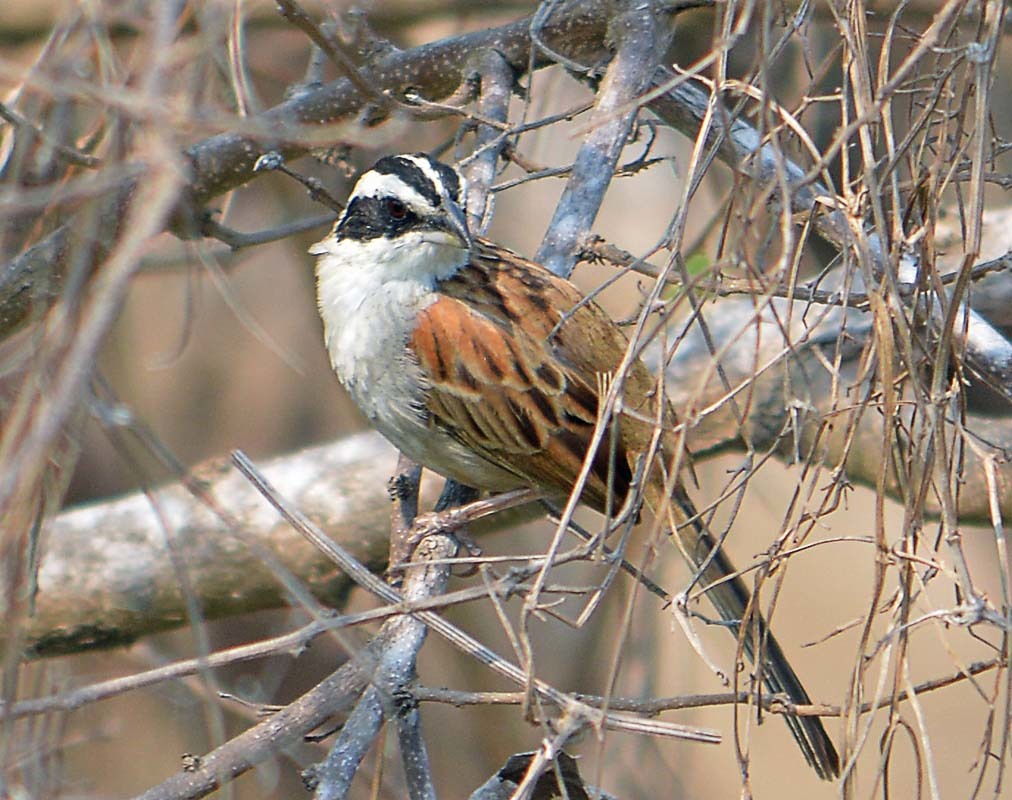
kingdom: Animalia
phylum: Chordata
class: Aves
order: Passeriformes
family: Passerellidae
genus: Peucaea
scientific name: Peucaea ruficauda
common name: Stripe-headed sparrow
